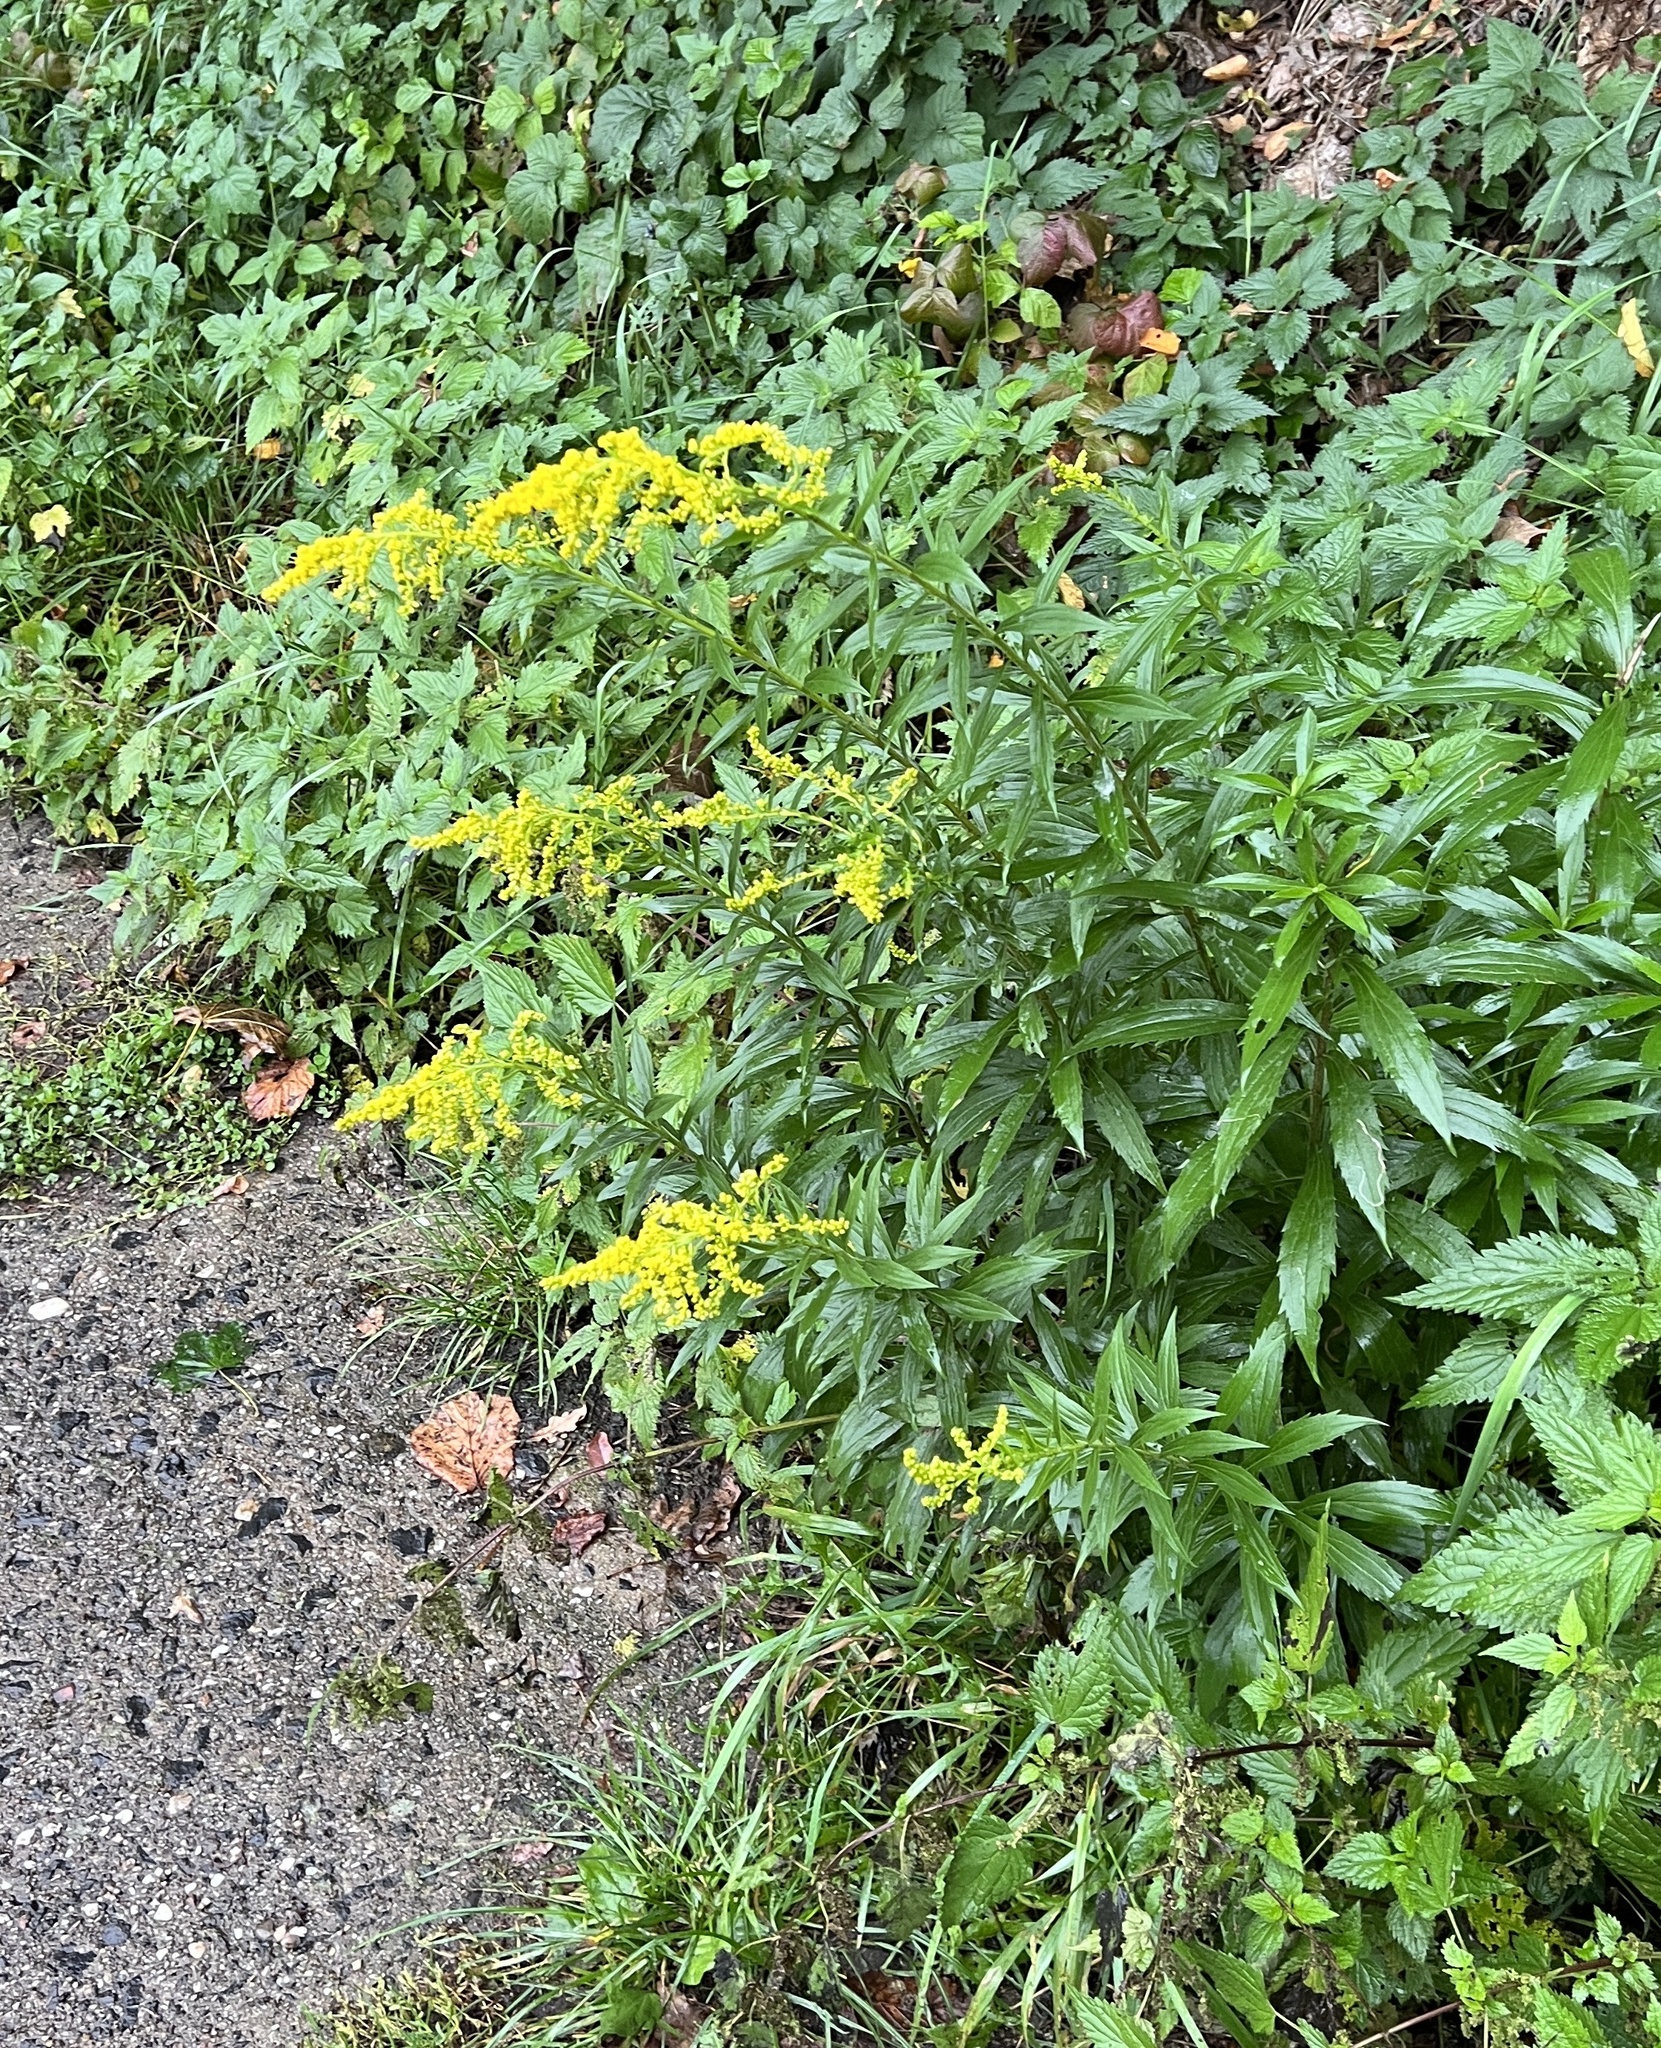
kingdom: Plantae
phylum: Tracheophyta
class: Magnoliopsida
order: Asterales
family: Asteraceae
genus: Solidago
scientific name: Solidago canadensis
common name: Canada goldenrod
